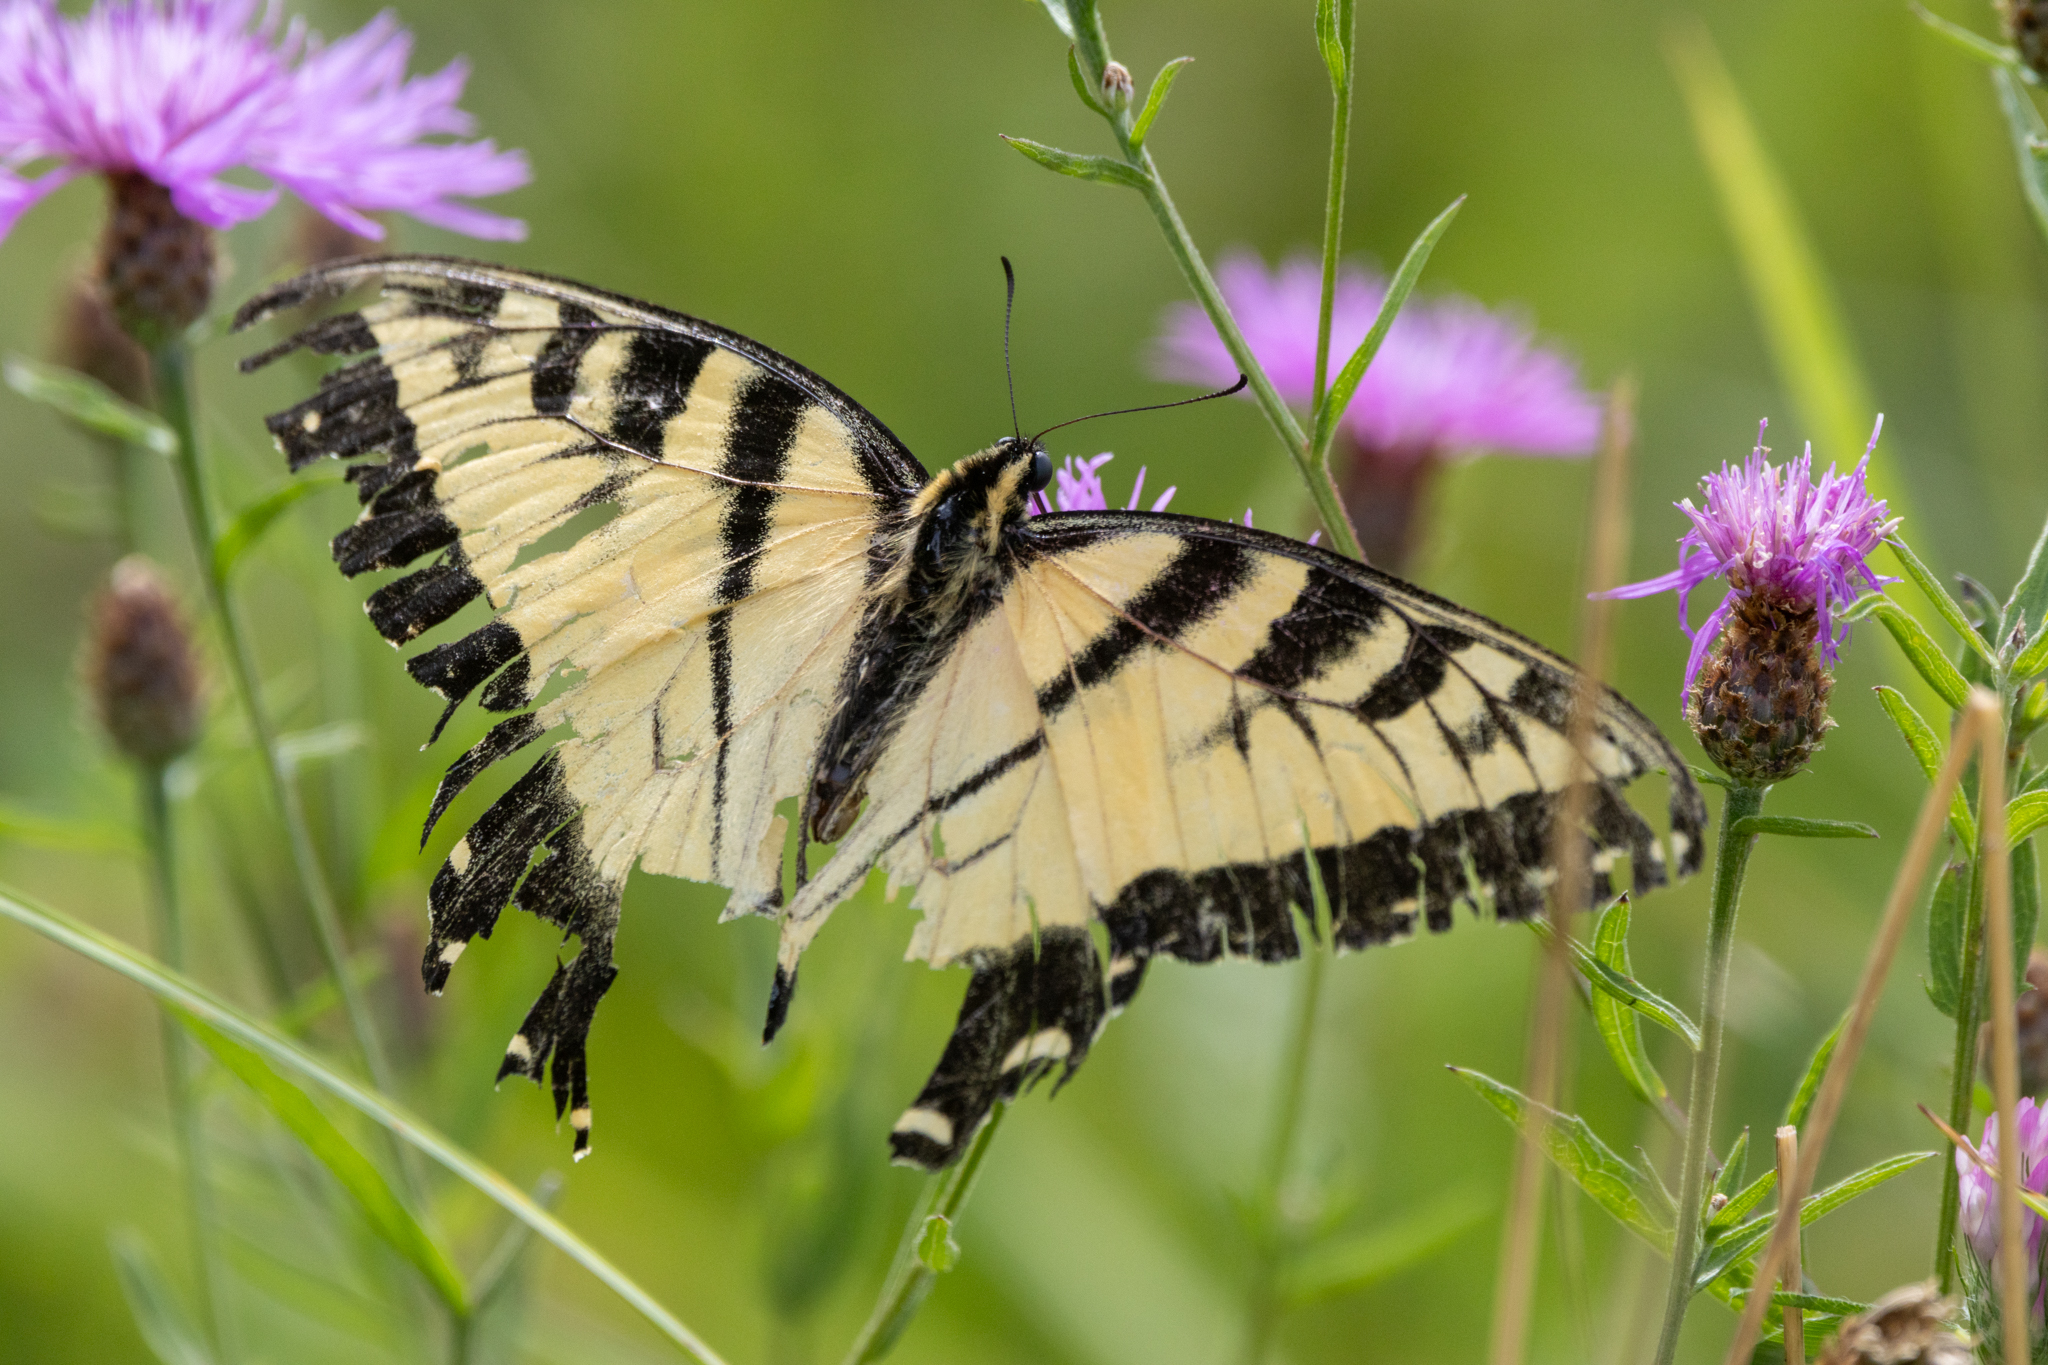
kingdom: Animalia
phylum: Arthropoda
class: Insecta
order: Lepidoptera
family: Papilionidae
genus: Papilio
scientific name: Papilio glaucus
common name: Tiger swallowtail
